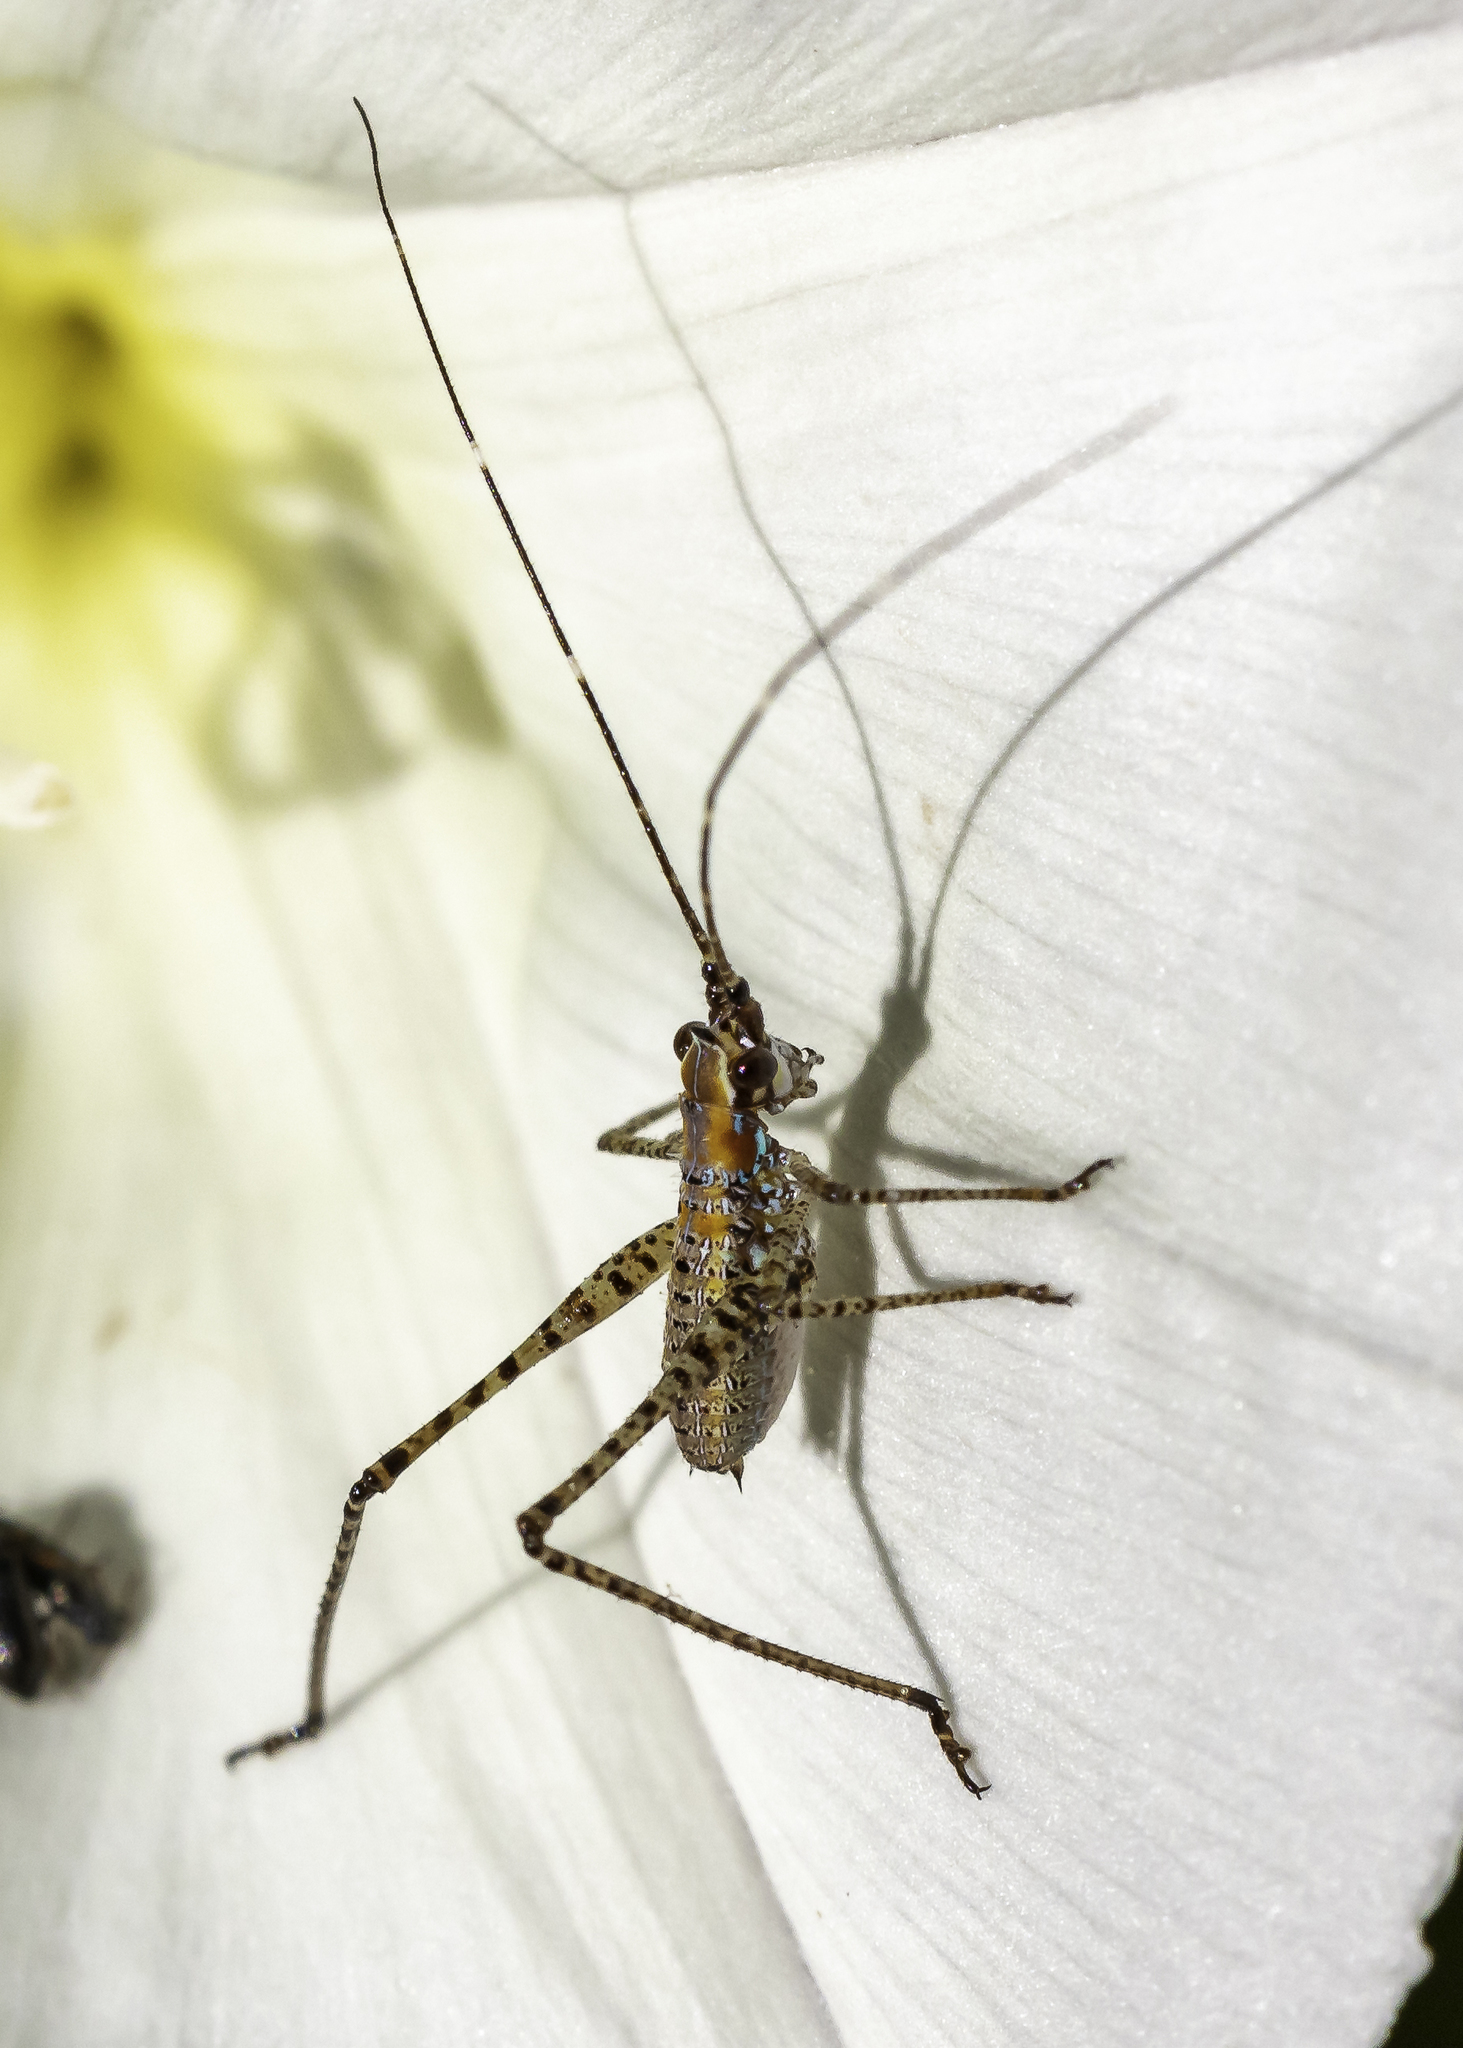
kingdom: Animalia
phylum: Arthropoda
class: Insecta
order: Orthoptera
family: Tettigoniidae
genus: Scudderia
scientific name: Scudderia
